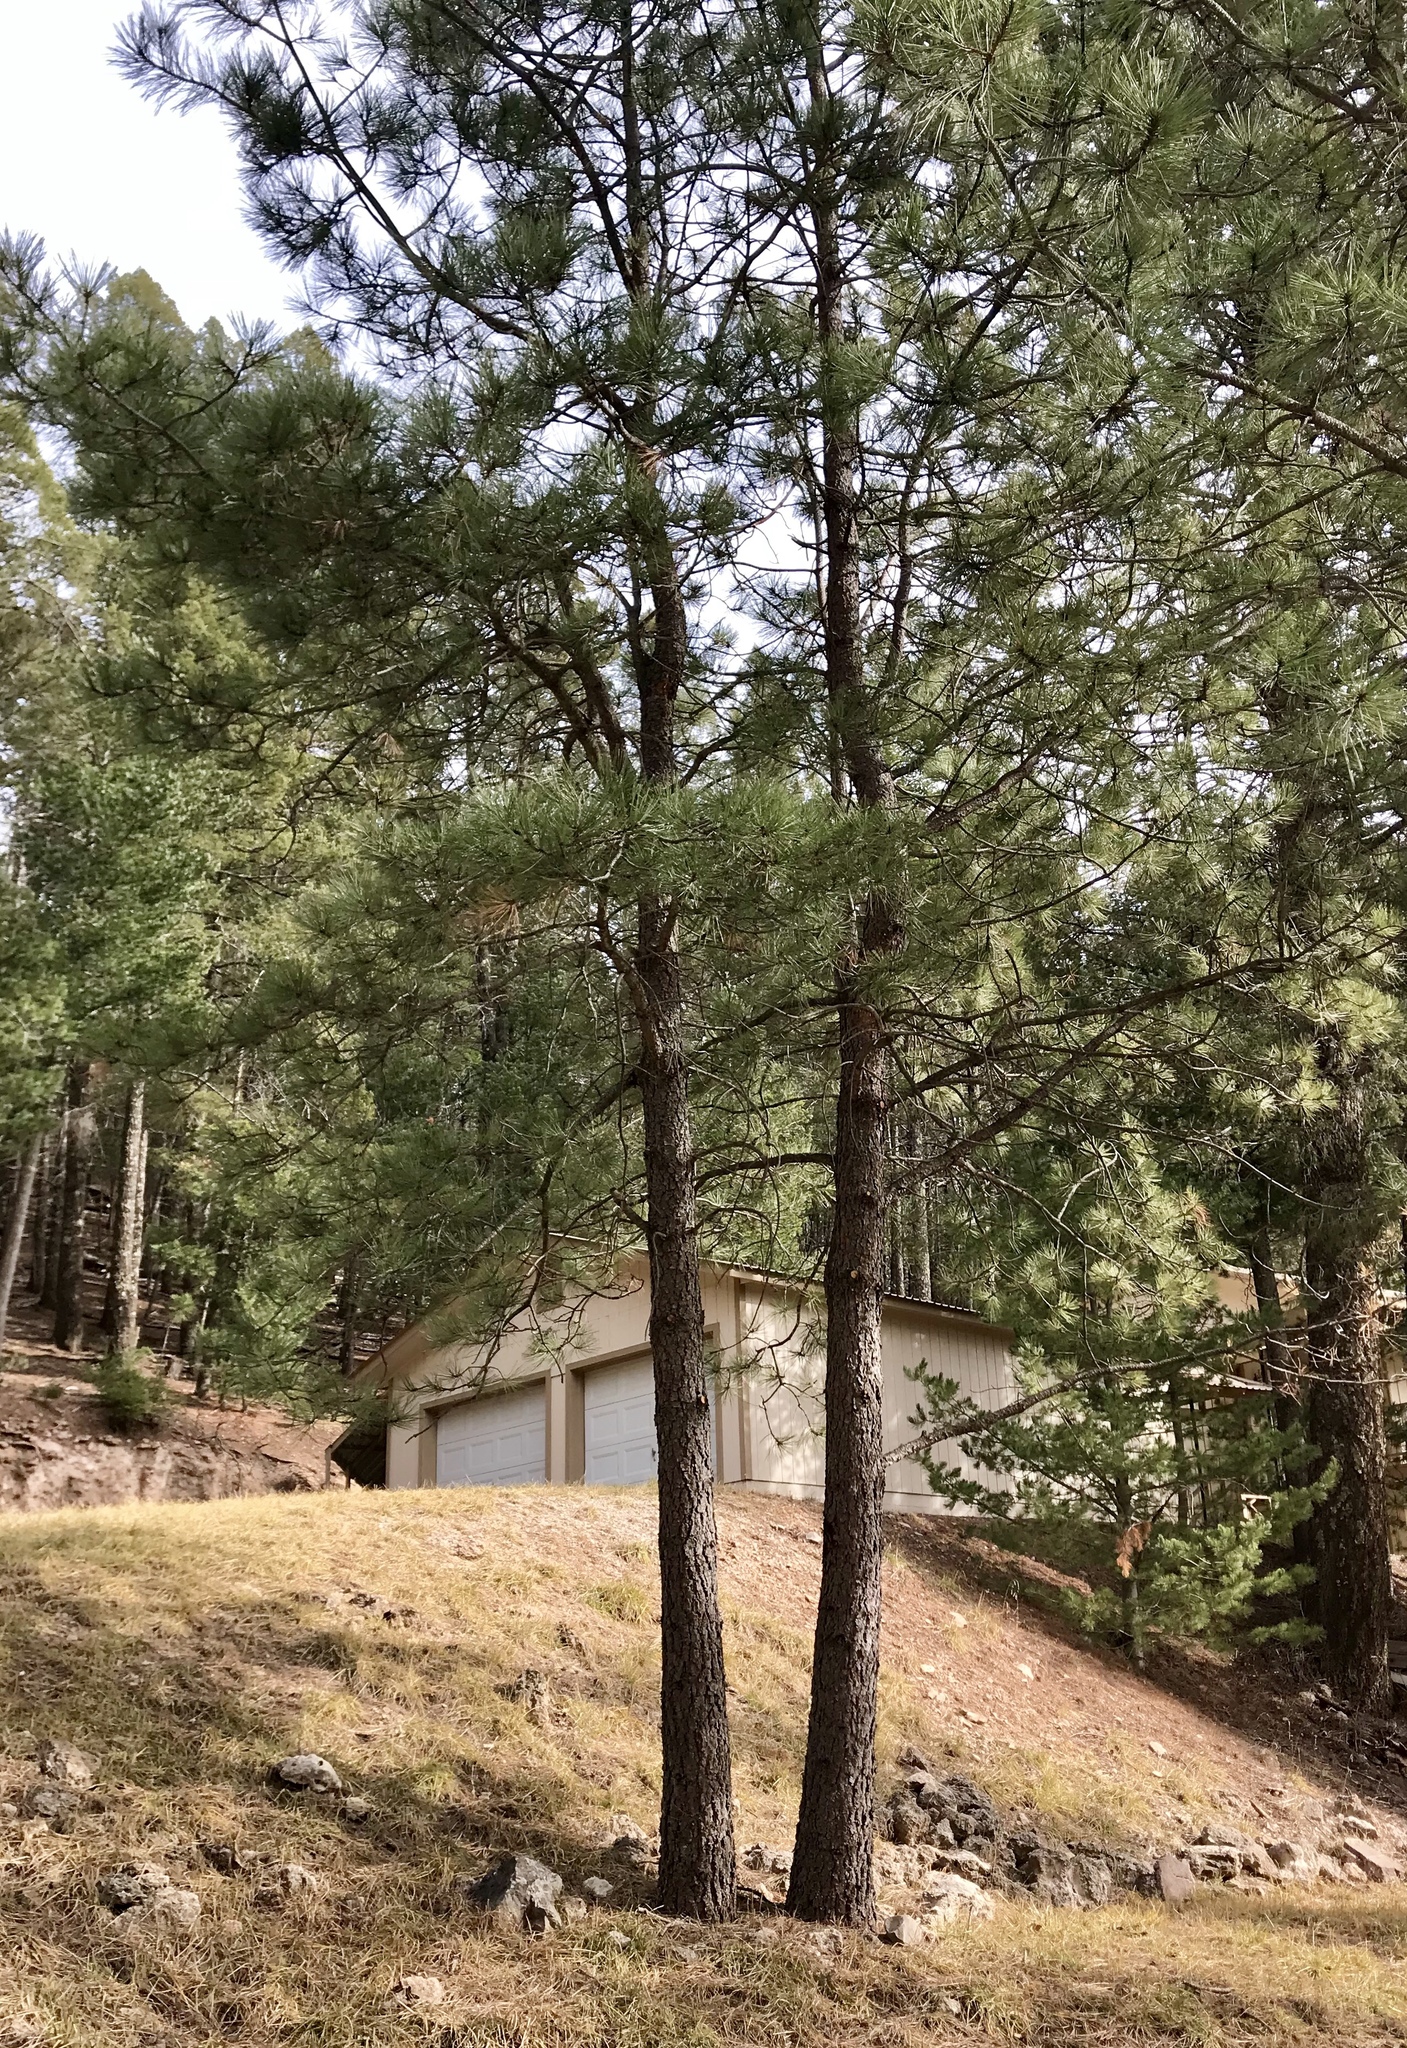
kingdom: Plantae
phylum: Tracheophyta
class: Pinopsida
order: Pinales
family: Pinaceae
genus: Pinus
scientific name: Pinus strobiformis
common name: Southwestern white pine
